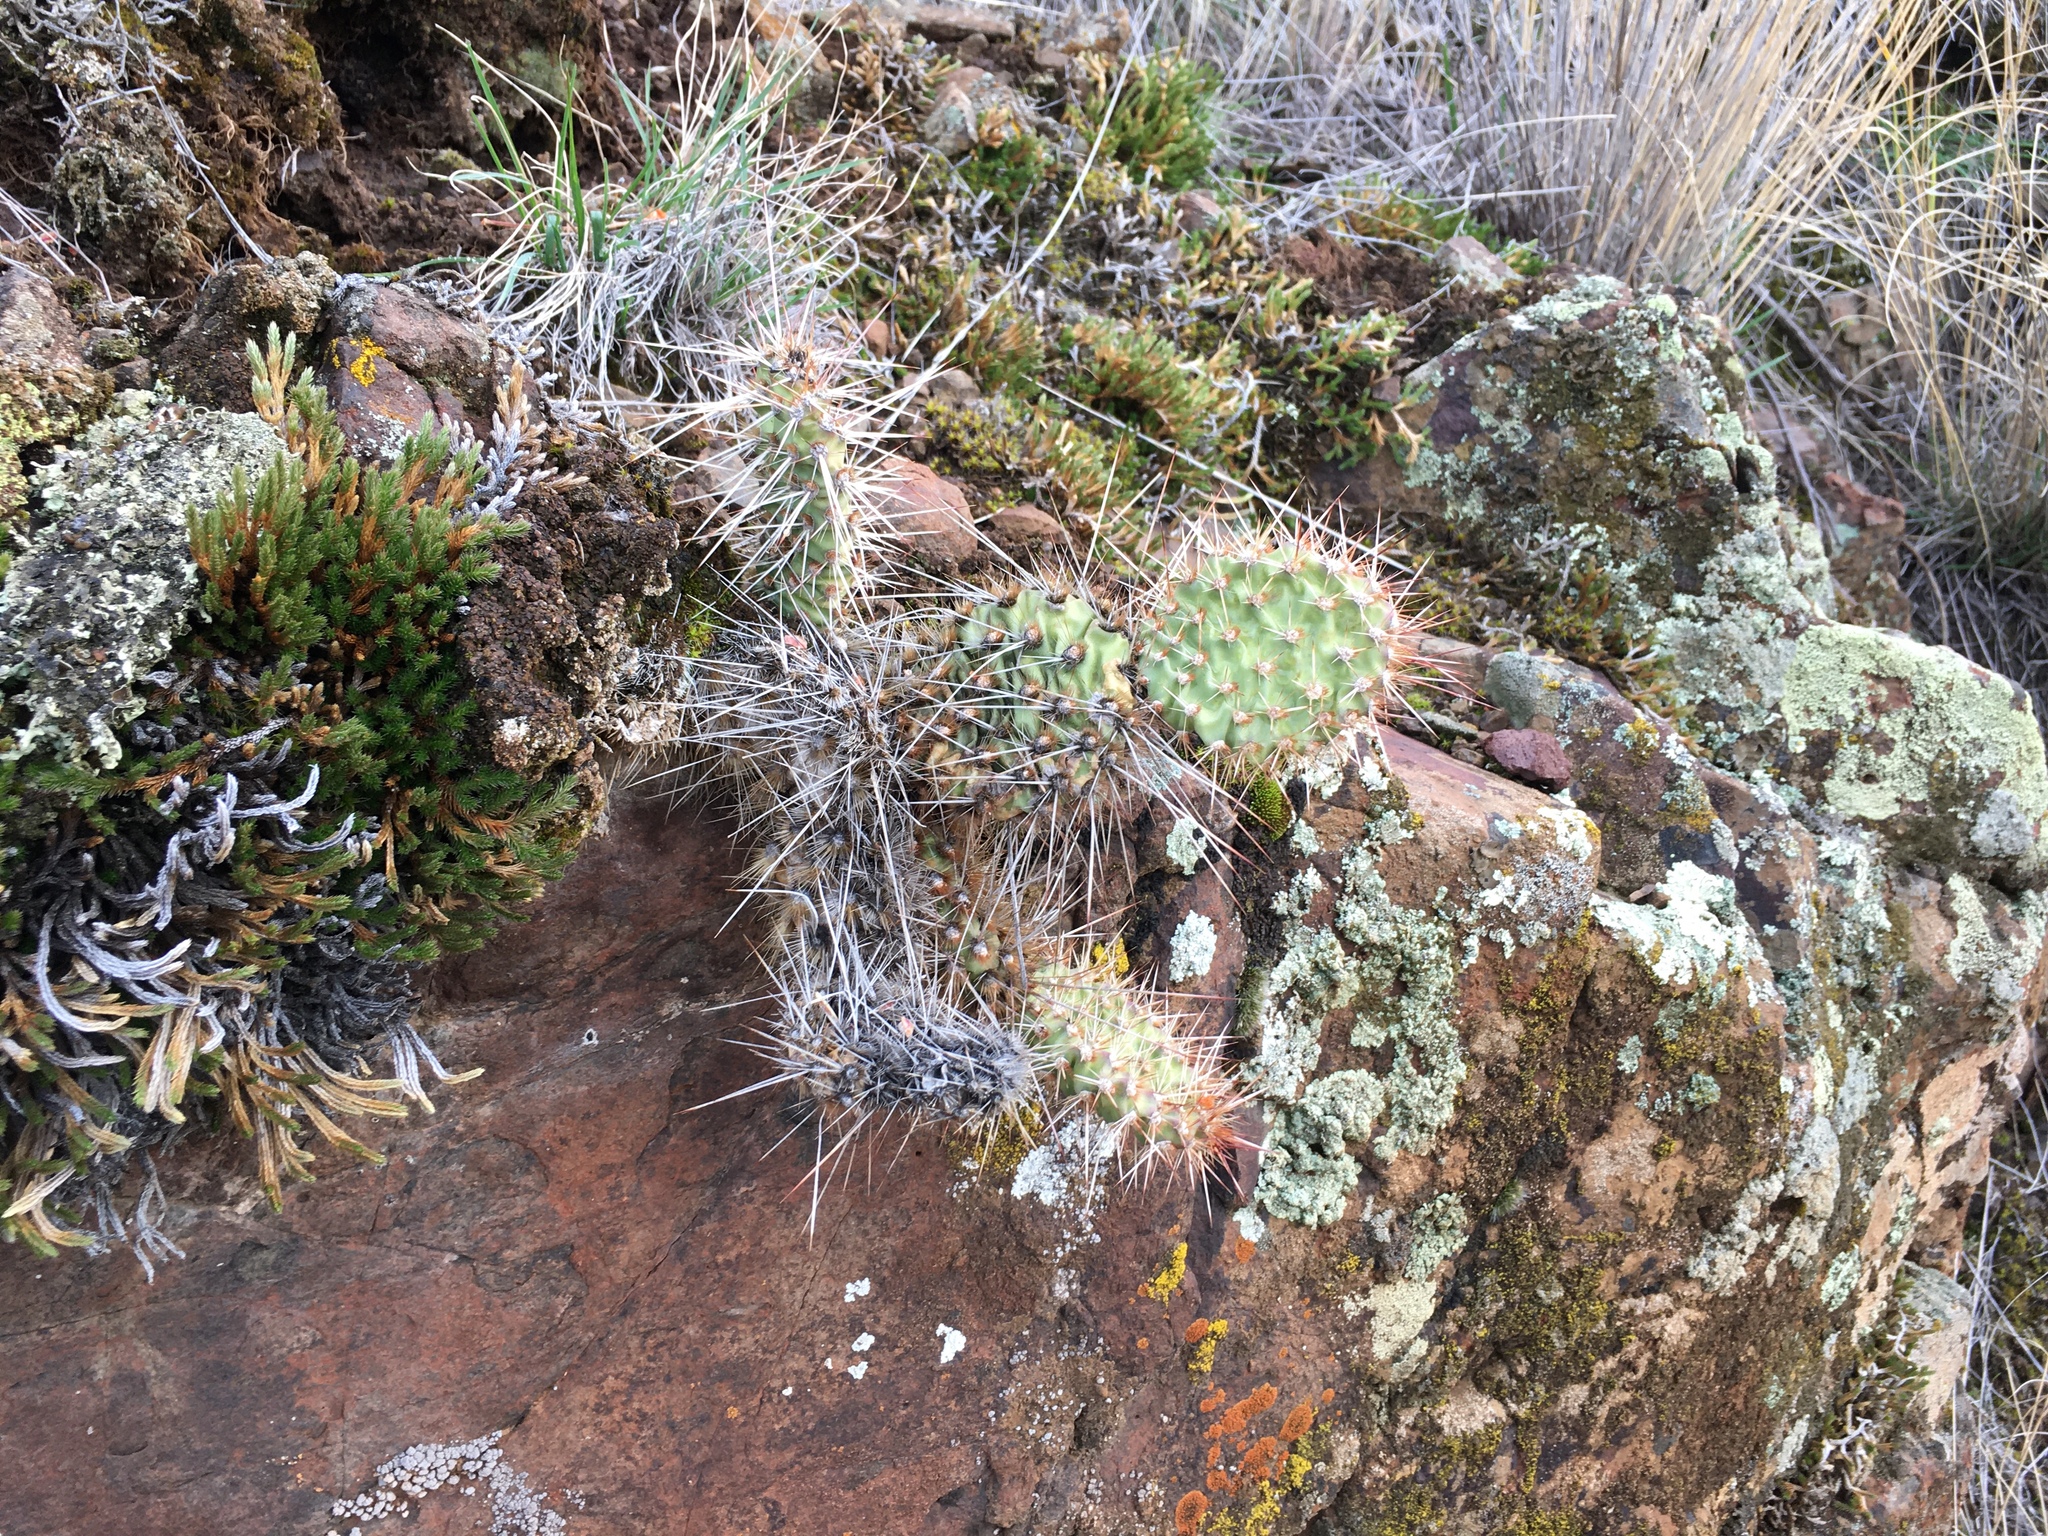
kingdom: Plantae
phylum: Tracheophyta
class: Magnoliopsida
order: Caryophyllales
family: Cactaceae
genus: Opuntia
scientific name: Opuntia polyacantha
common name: Plains prickly-pear
